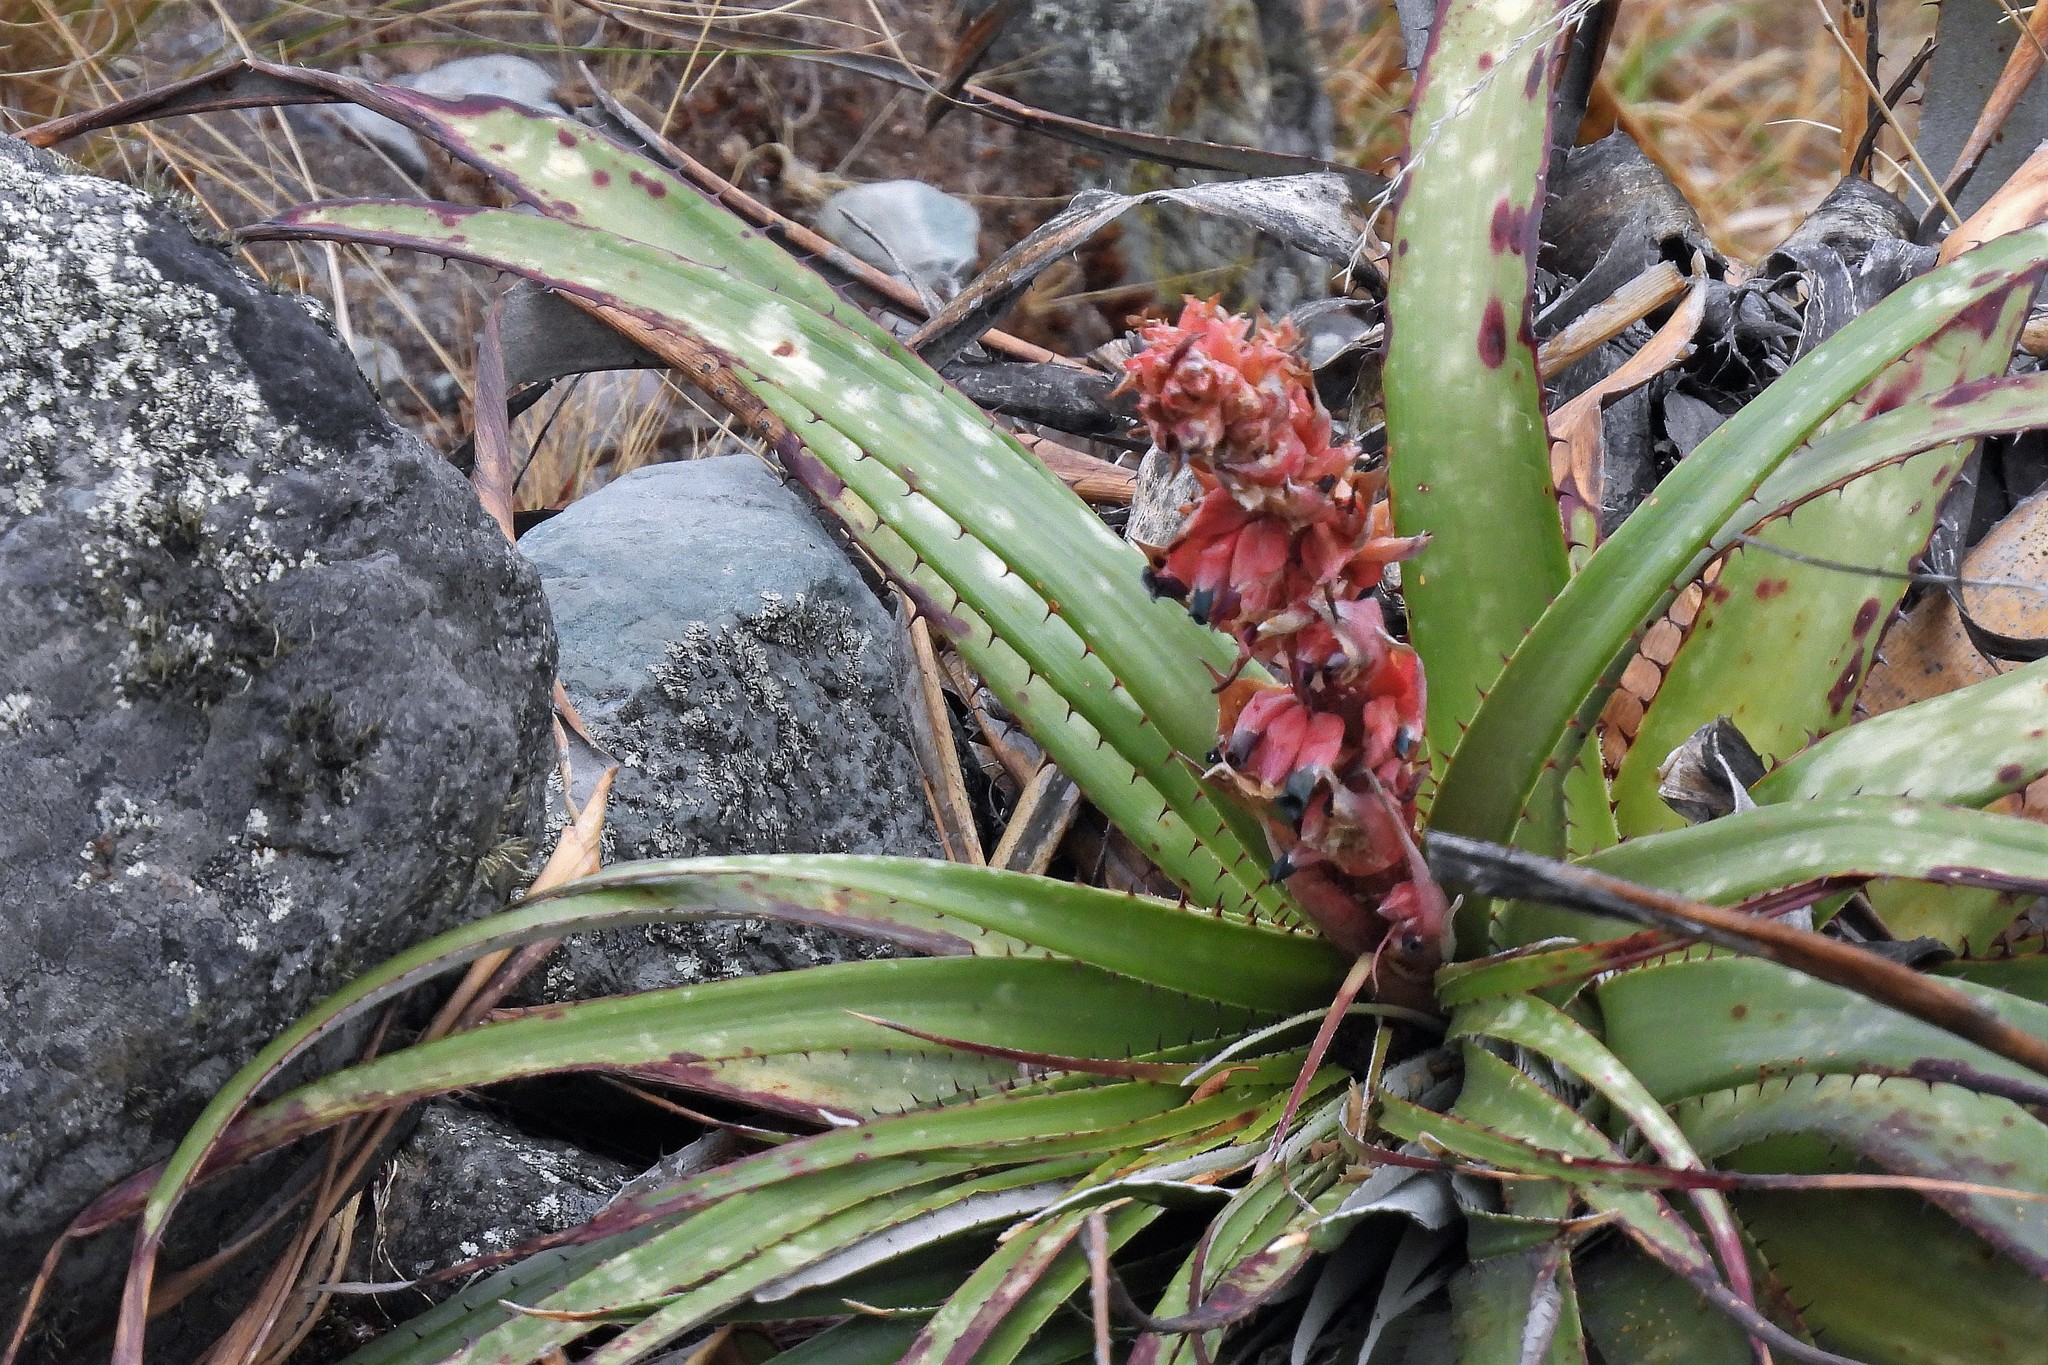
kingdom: Plantae
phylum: Tracheophyta
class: Liliopsida
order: Poales
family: Bromeliaceae
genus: Puya
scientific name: Puya dyckioides
